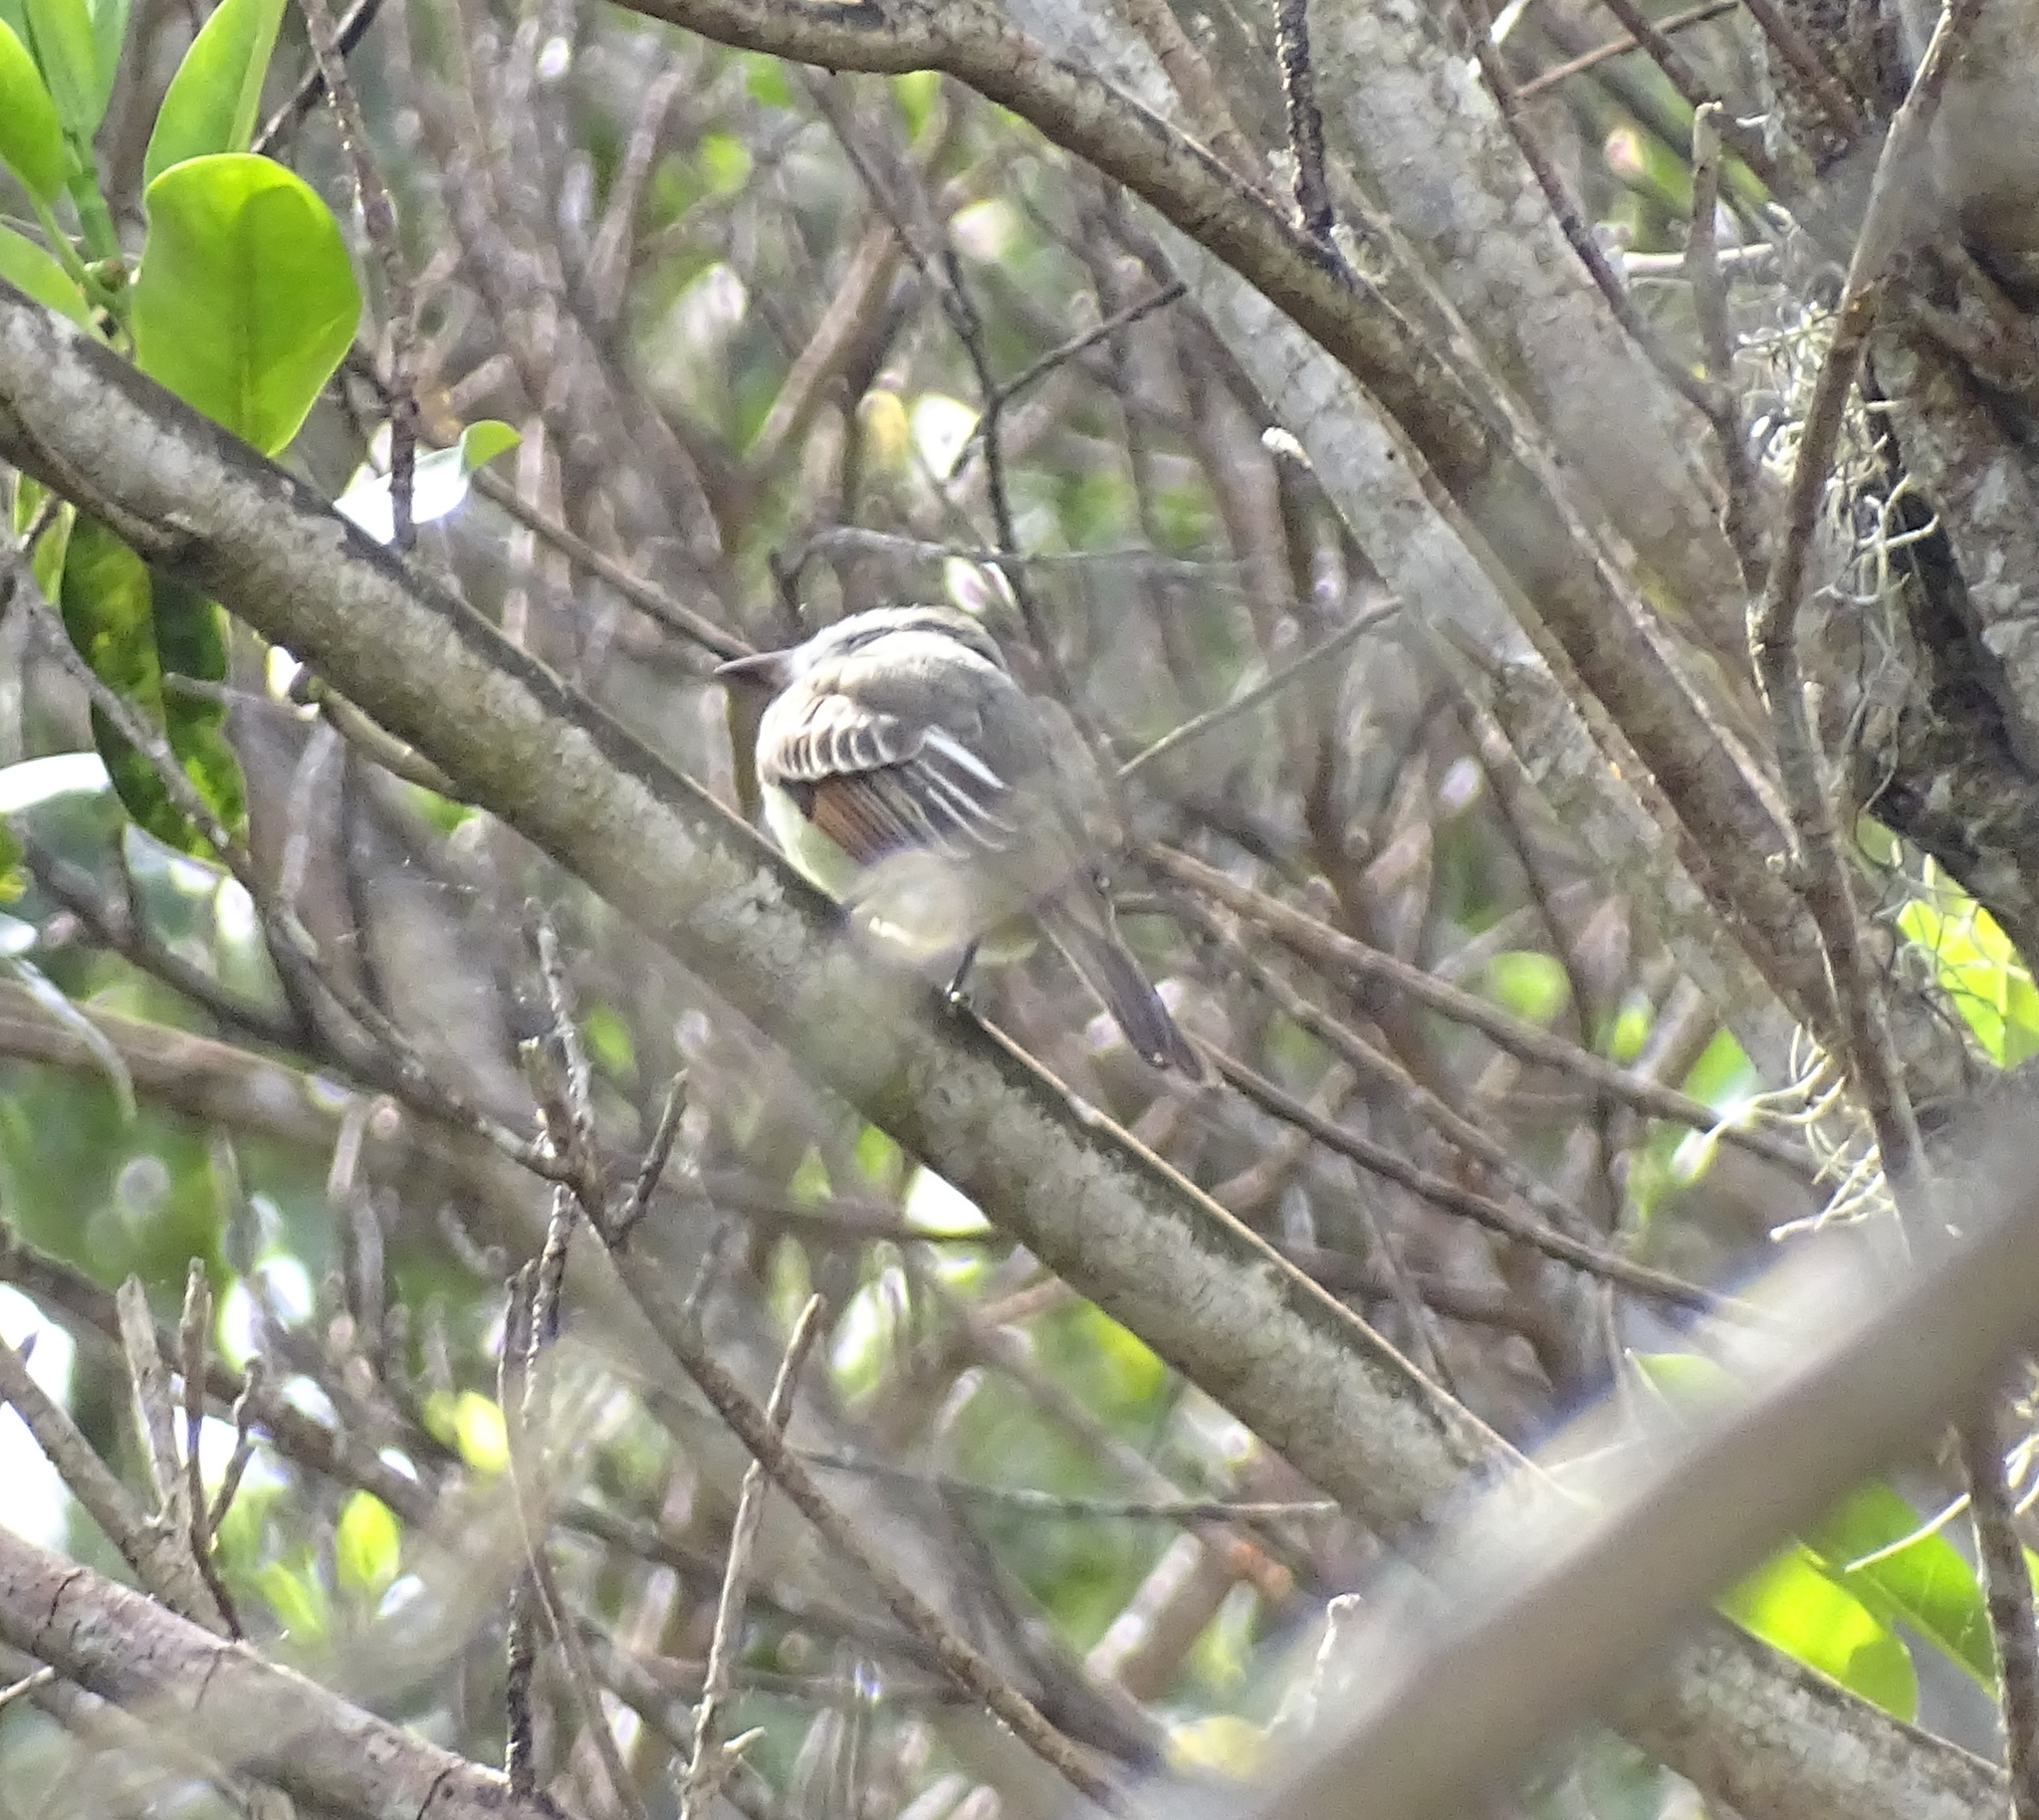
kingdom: Animalia
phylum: Chordata
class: Aves
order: Passeriformes
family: Tyrannidae
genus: Myiarchus
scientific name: Myiarchus crinitus
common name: Great crested flycatcher
